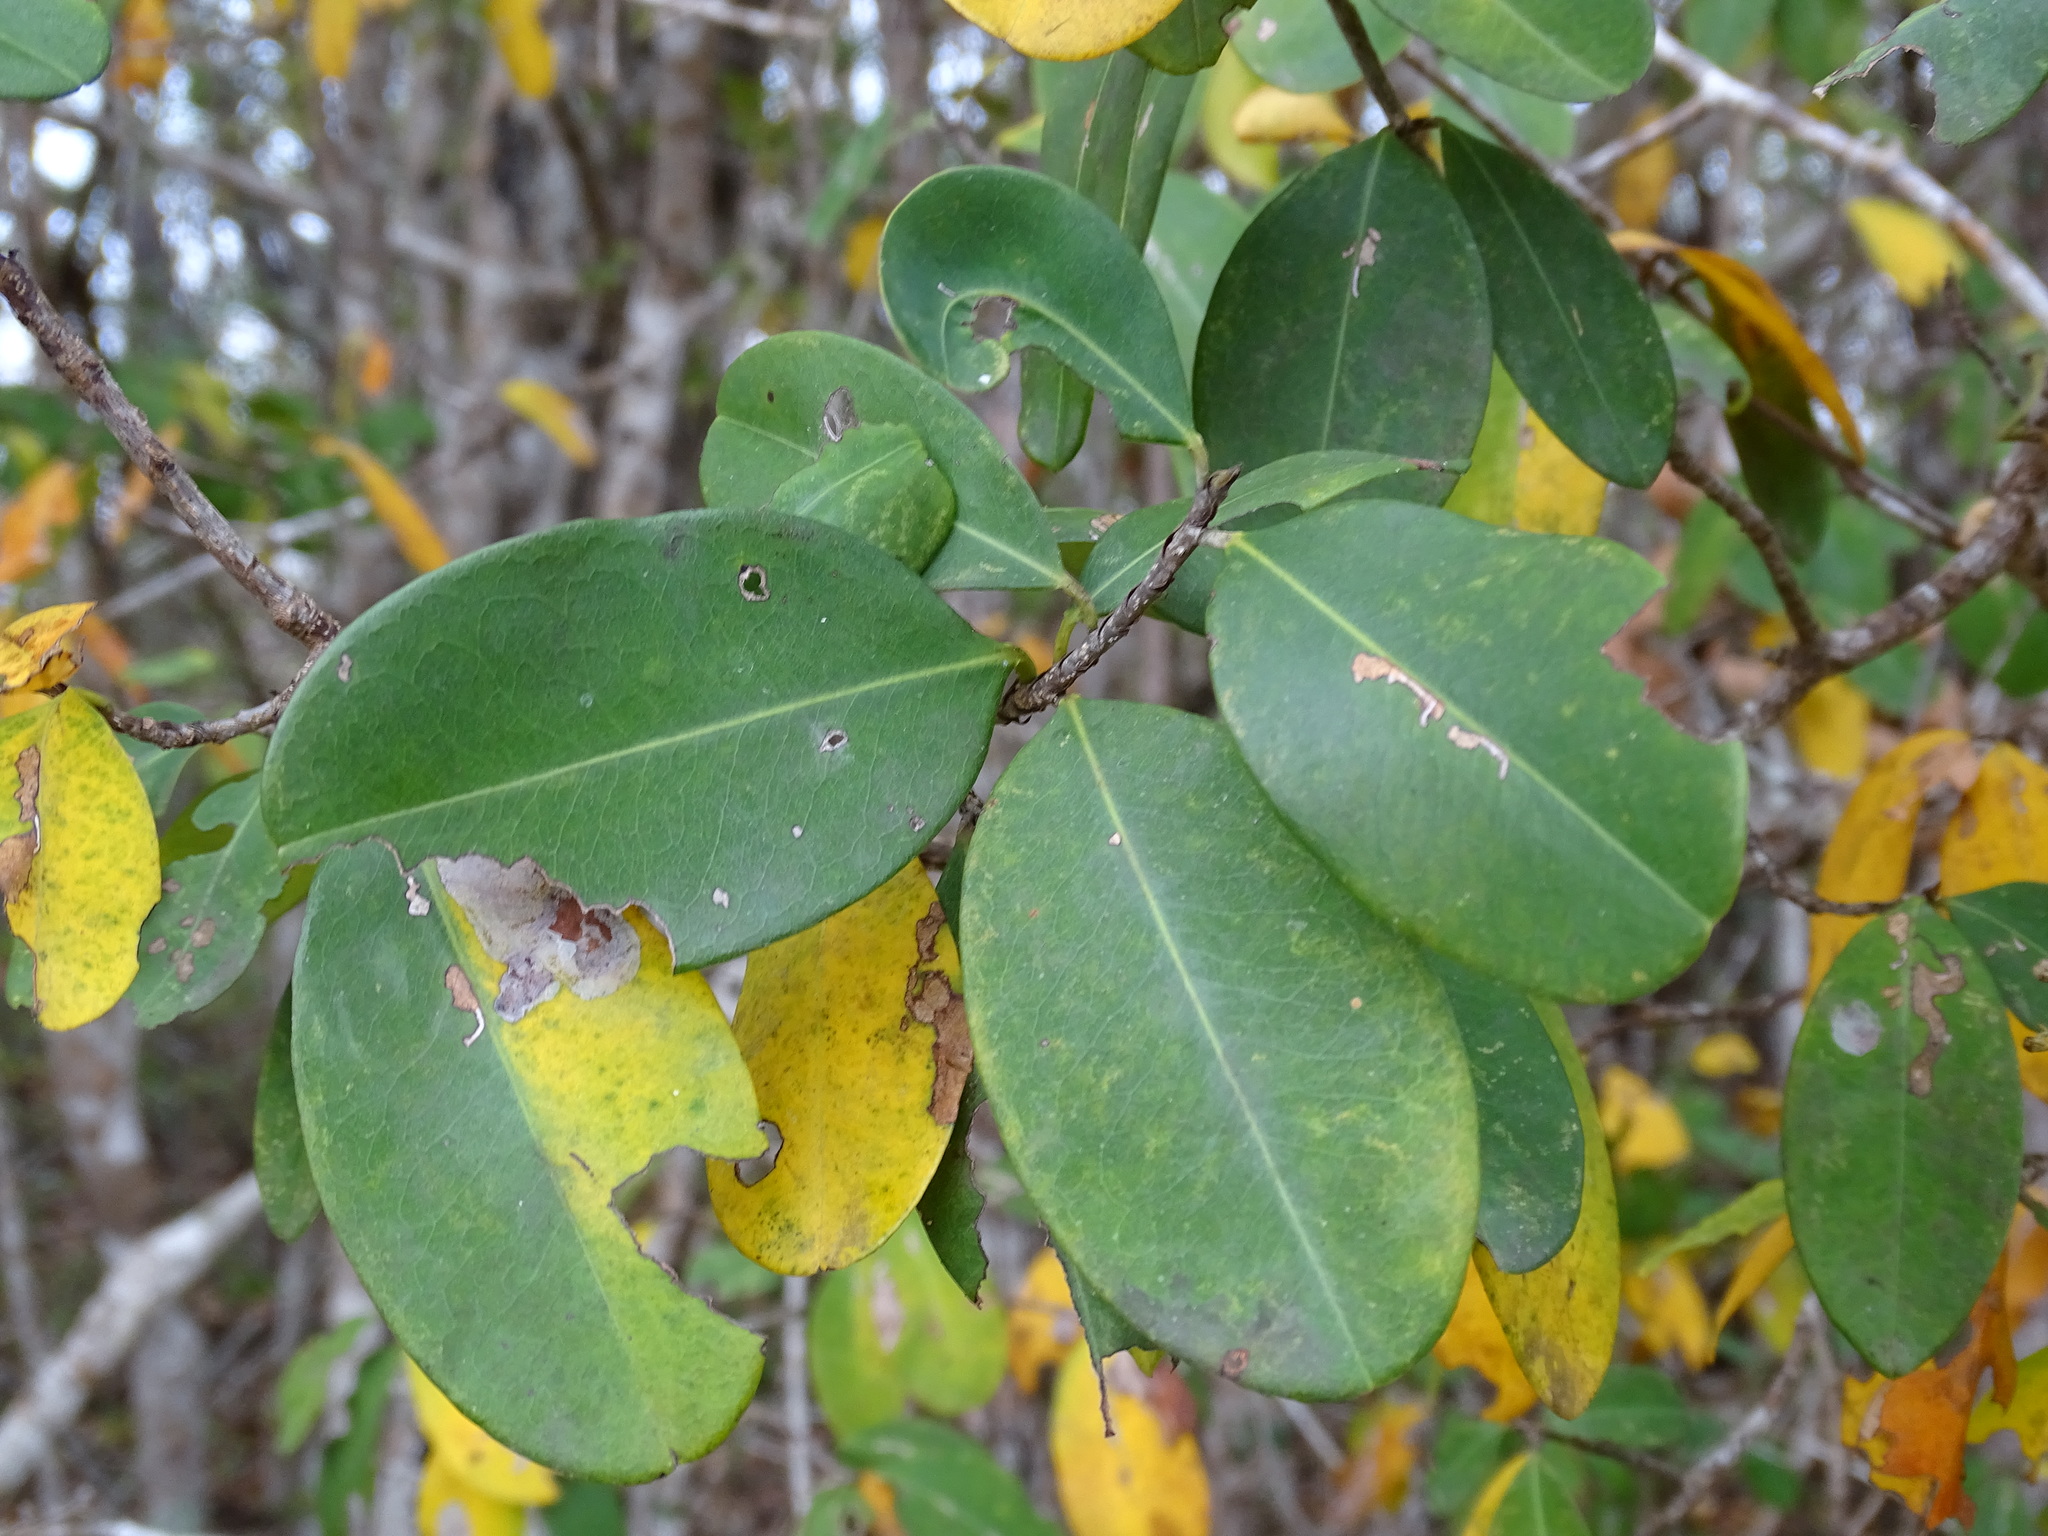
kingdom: Plantae
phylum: Tracheophyta
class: Magnoliopsida
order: Malpighiales
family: Erythroxylaceae
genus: Erythroxylum
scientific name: Erythroxylum areolatum
